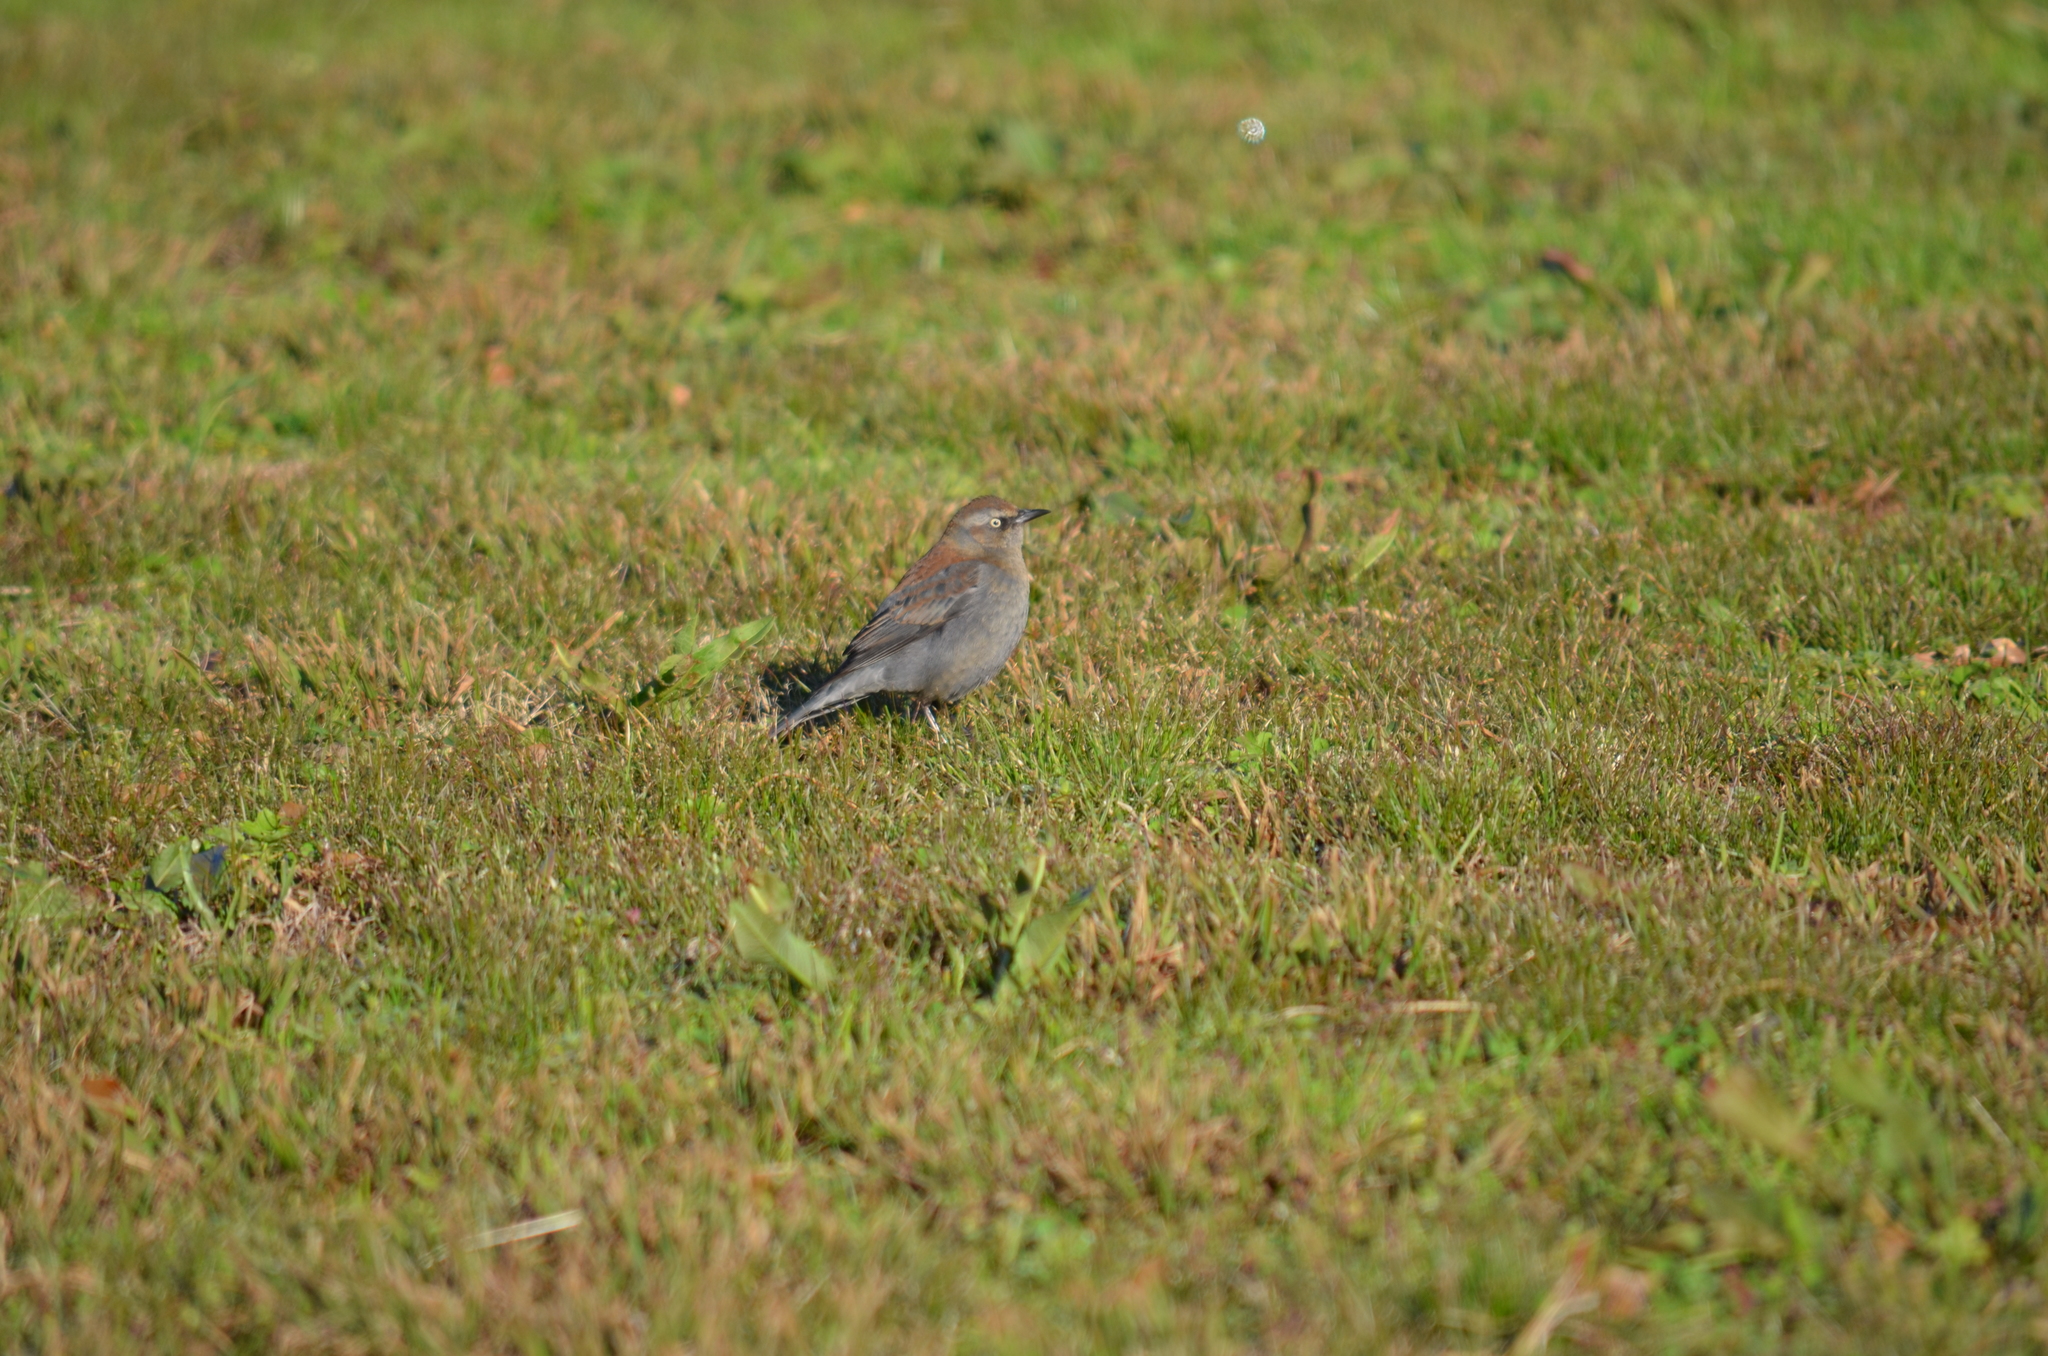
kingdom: Animalia
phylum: Chordata
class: Aves
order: Passeriformes
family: Icteridae
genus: Euphagus
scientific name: Euphagus carolinus
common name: Rusty blackbird
